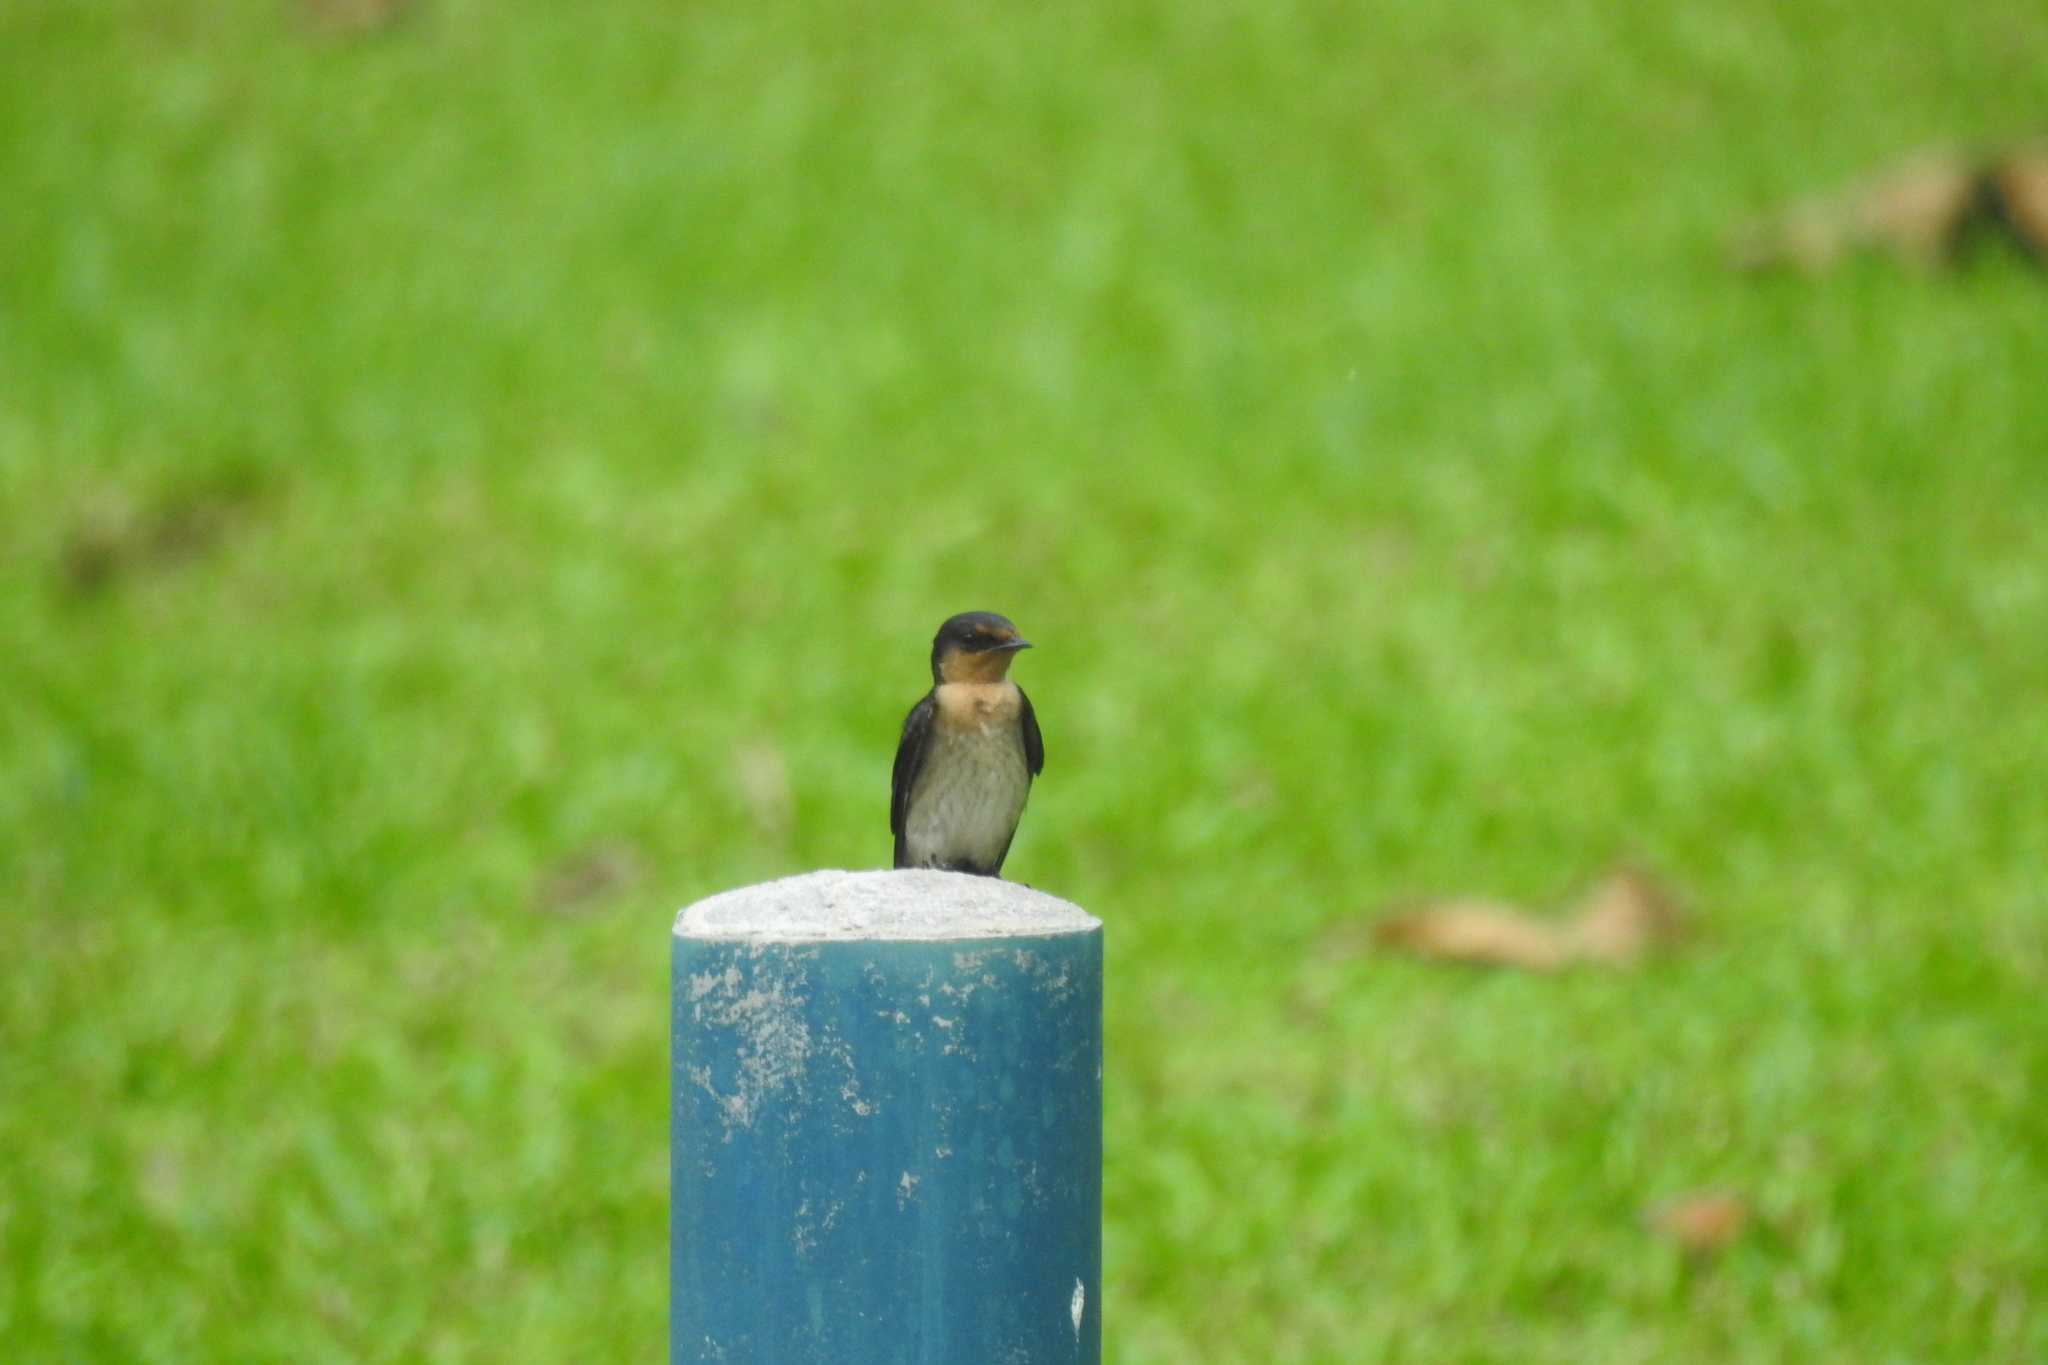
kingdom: Animalia
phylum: Chordata
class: Aves
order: Passeriformes
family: Hirundinidae
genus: Hirundo
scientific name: Hirundo tahitica
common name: Pacific swallow
